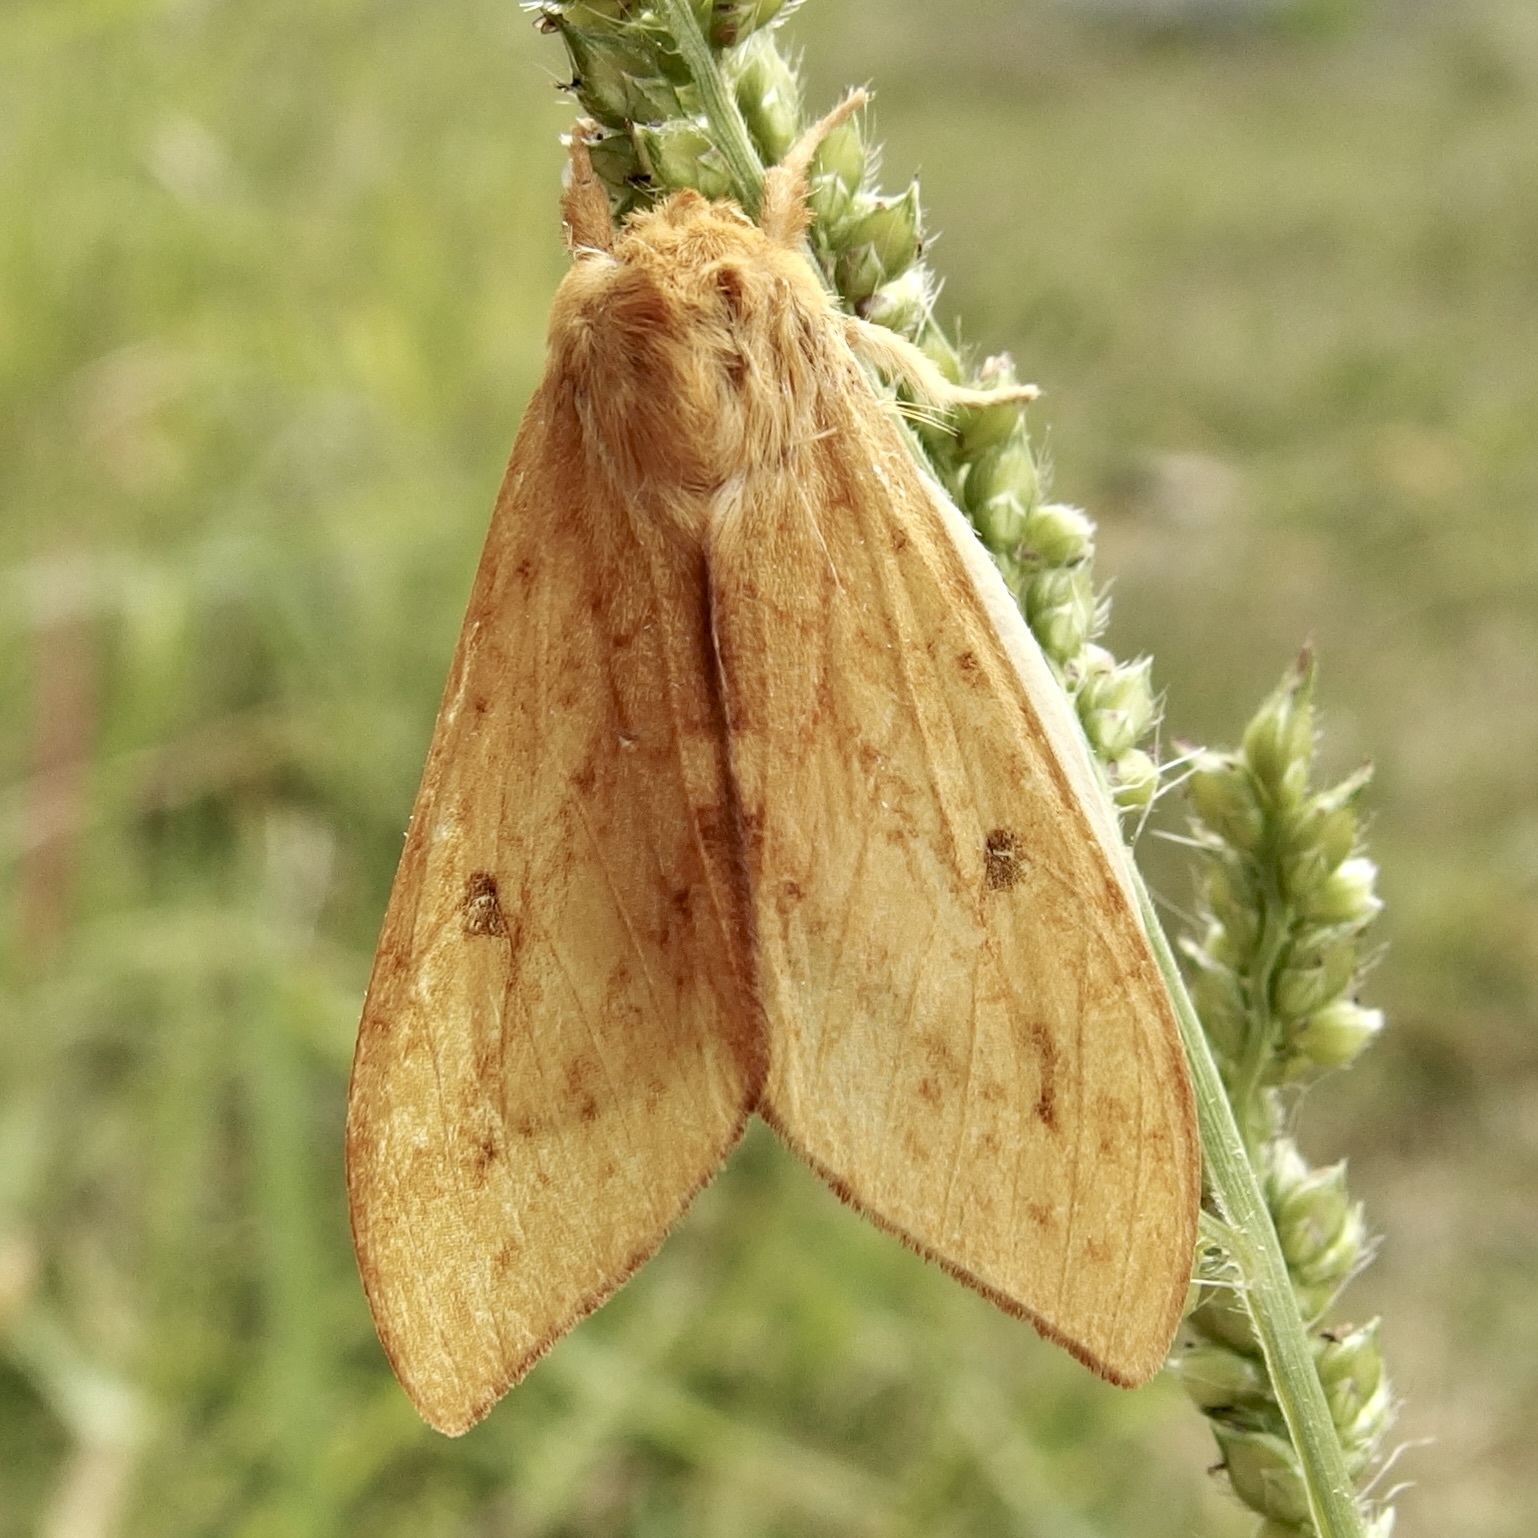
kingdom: Animalia
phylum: Arthropoda
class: Insecta
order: Lepidoptera
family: Erebidae
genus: Lophocampa
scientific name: Lophocampa pura
